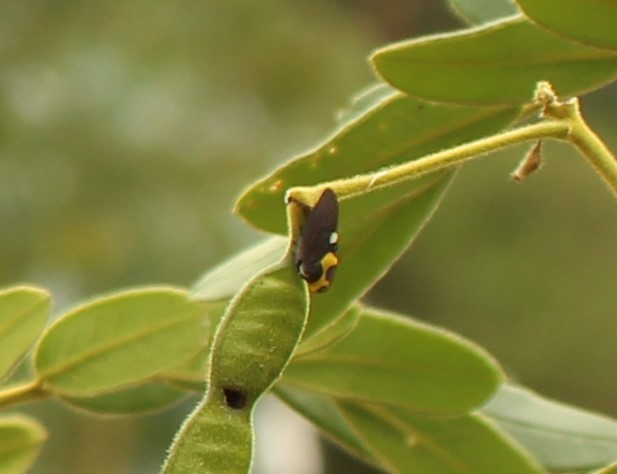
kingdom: Animalia
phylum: Arthropoda
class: Insecta
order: Hemiptera
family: Membracidae
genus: Membracis
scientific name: Membracis mexicana
